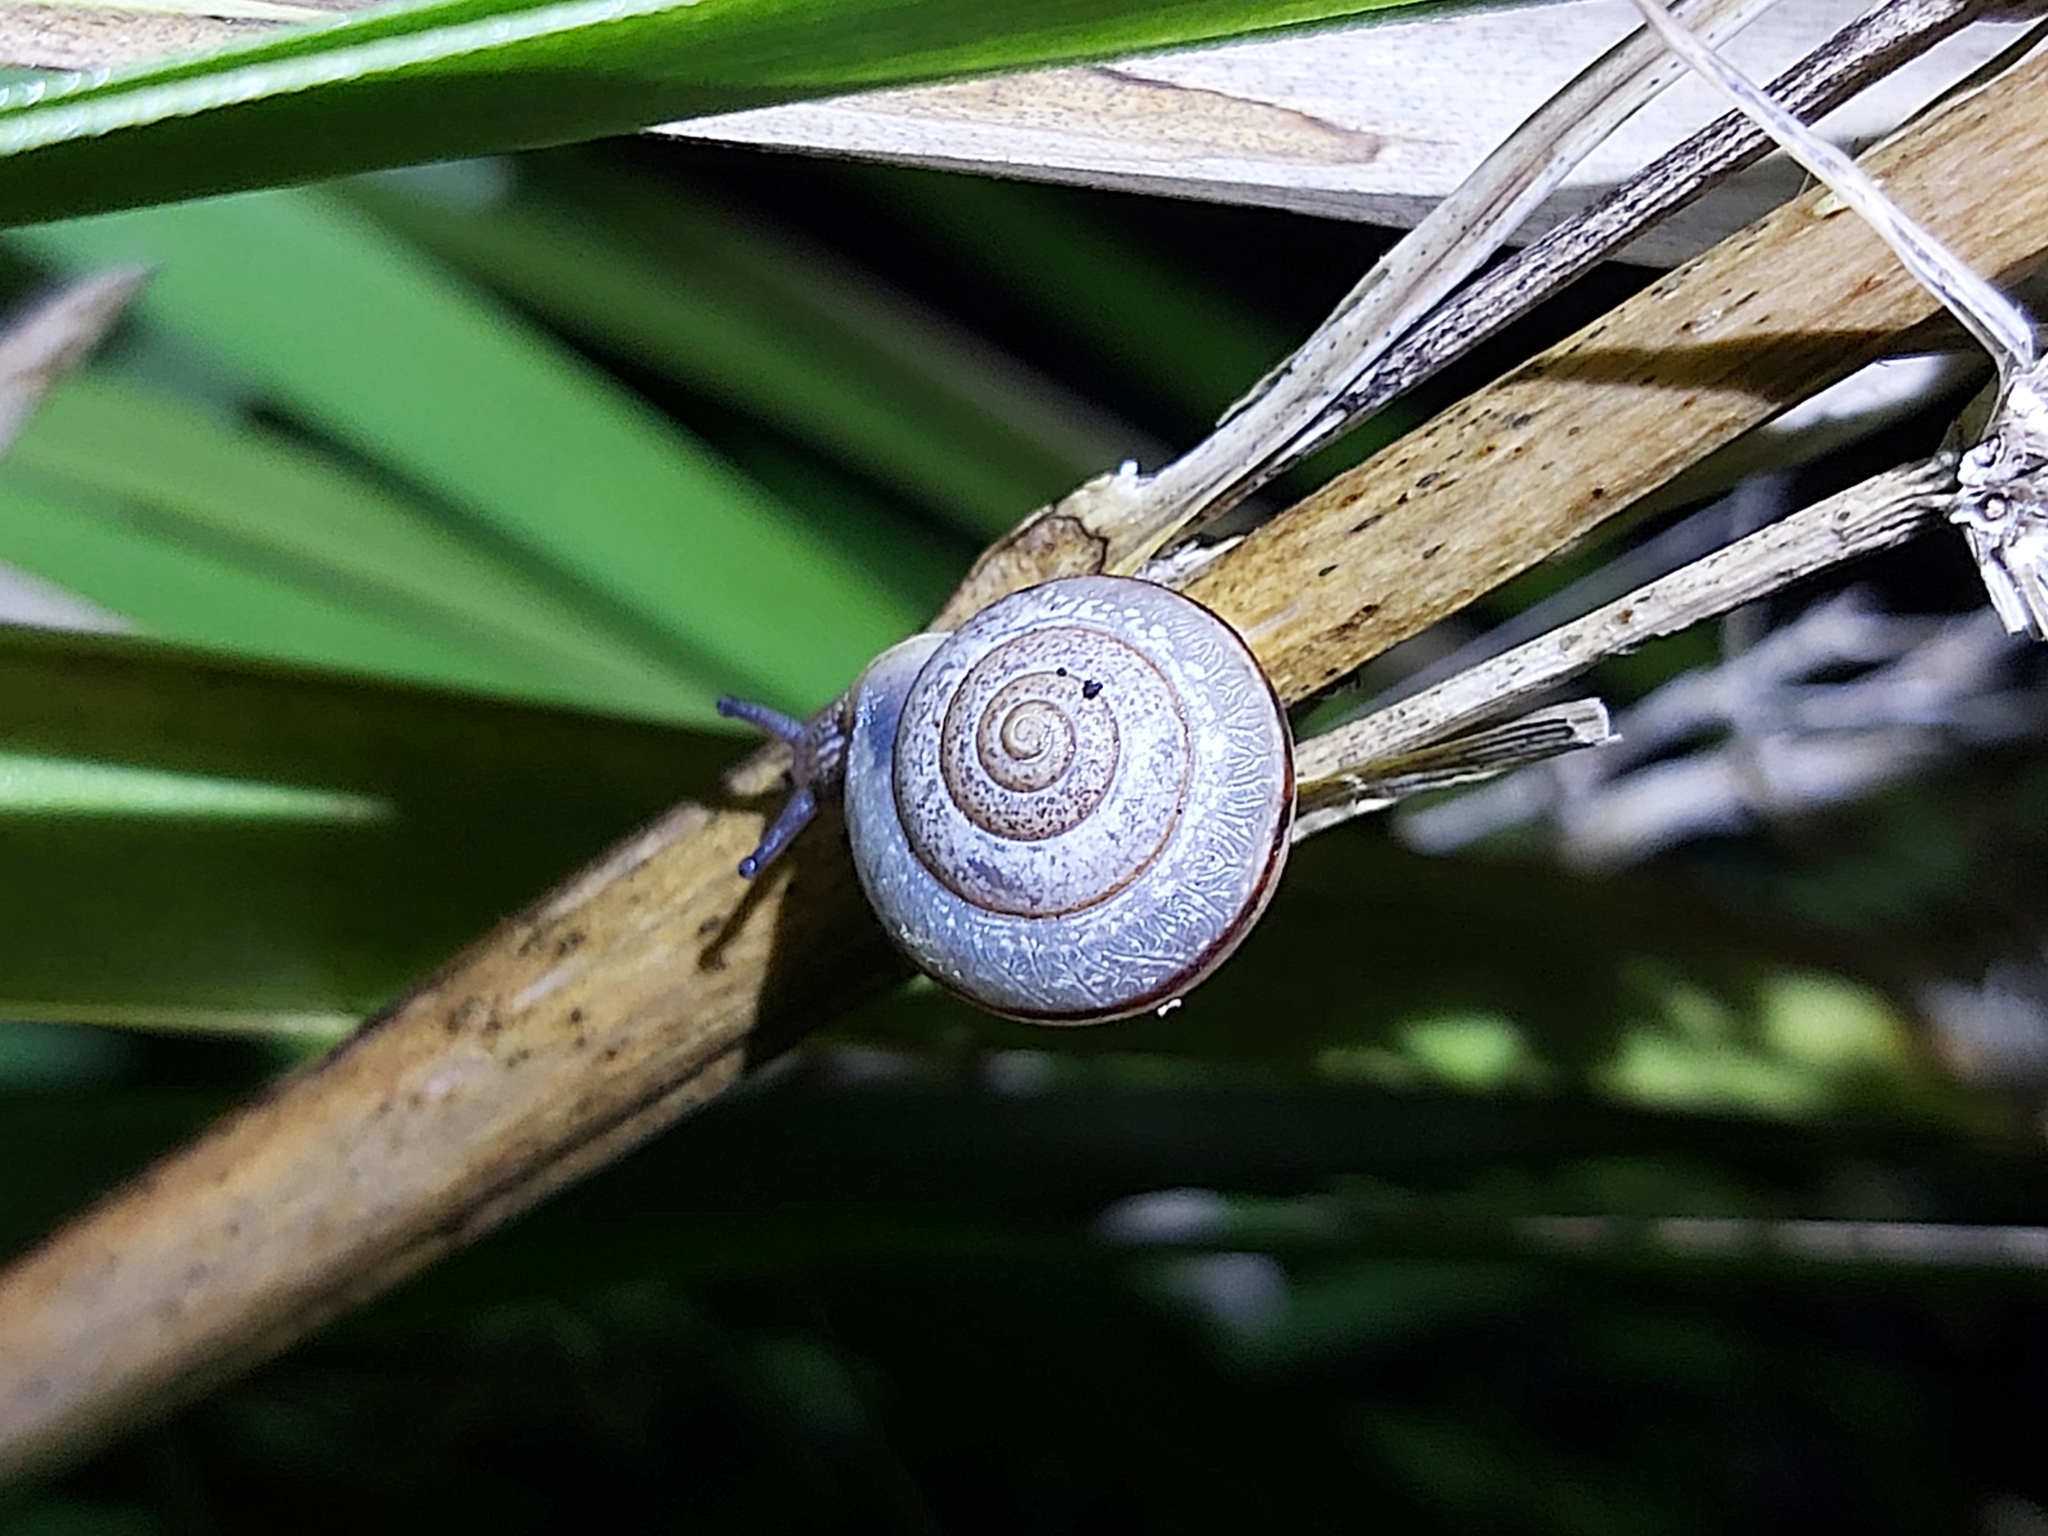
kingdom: Animalia
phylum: Mollusca
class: Gastropoda
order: Stylommatophora
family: Camaenidae
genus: Bradybaena
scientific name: Bradybaena similaris
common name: Asian trampsnail
